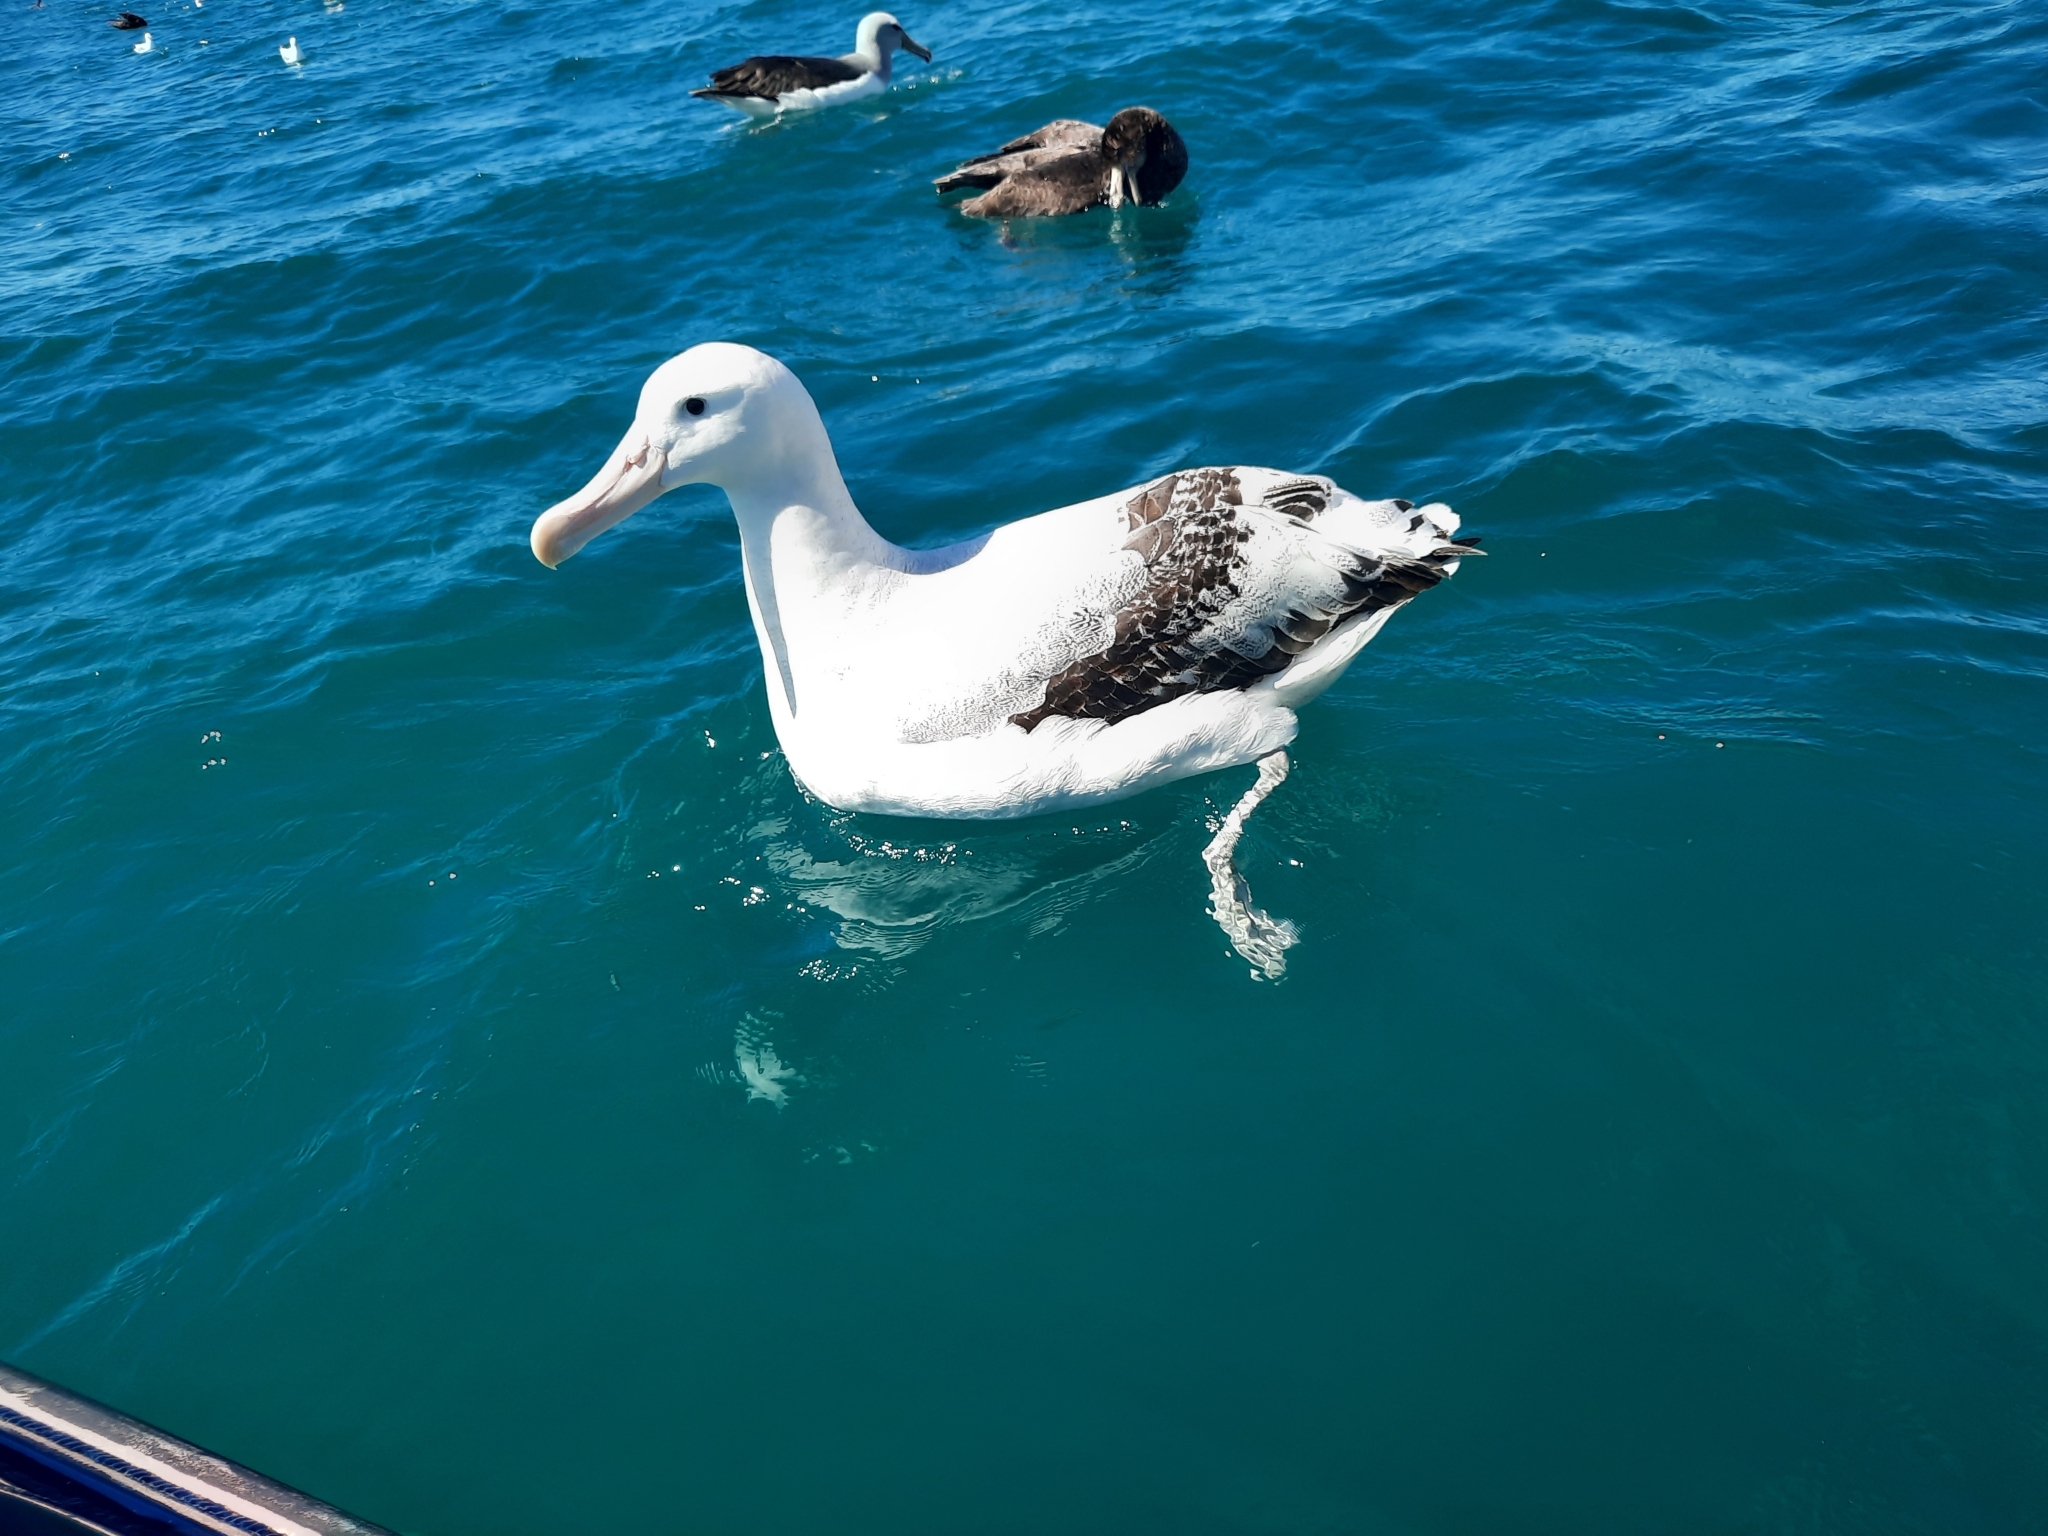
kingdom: Animalia
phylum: Chordata
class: Aves
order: Procellariiformes
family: Diomedeidae
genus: Diomedea
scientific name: Diomedea antipodensis
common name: Antipodean albatross
